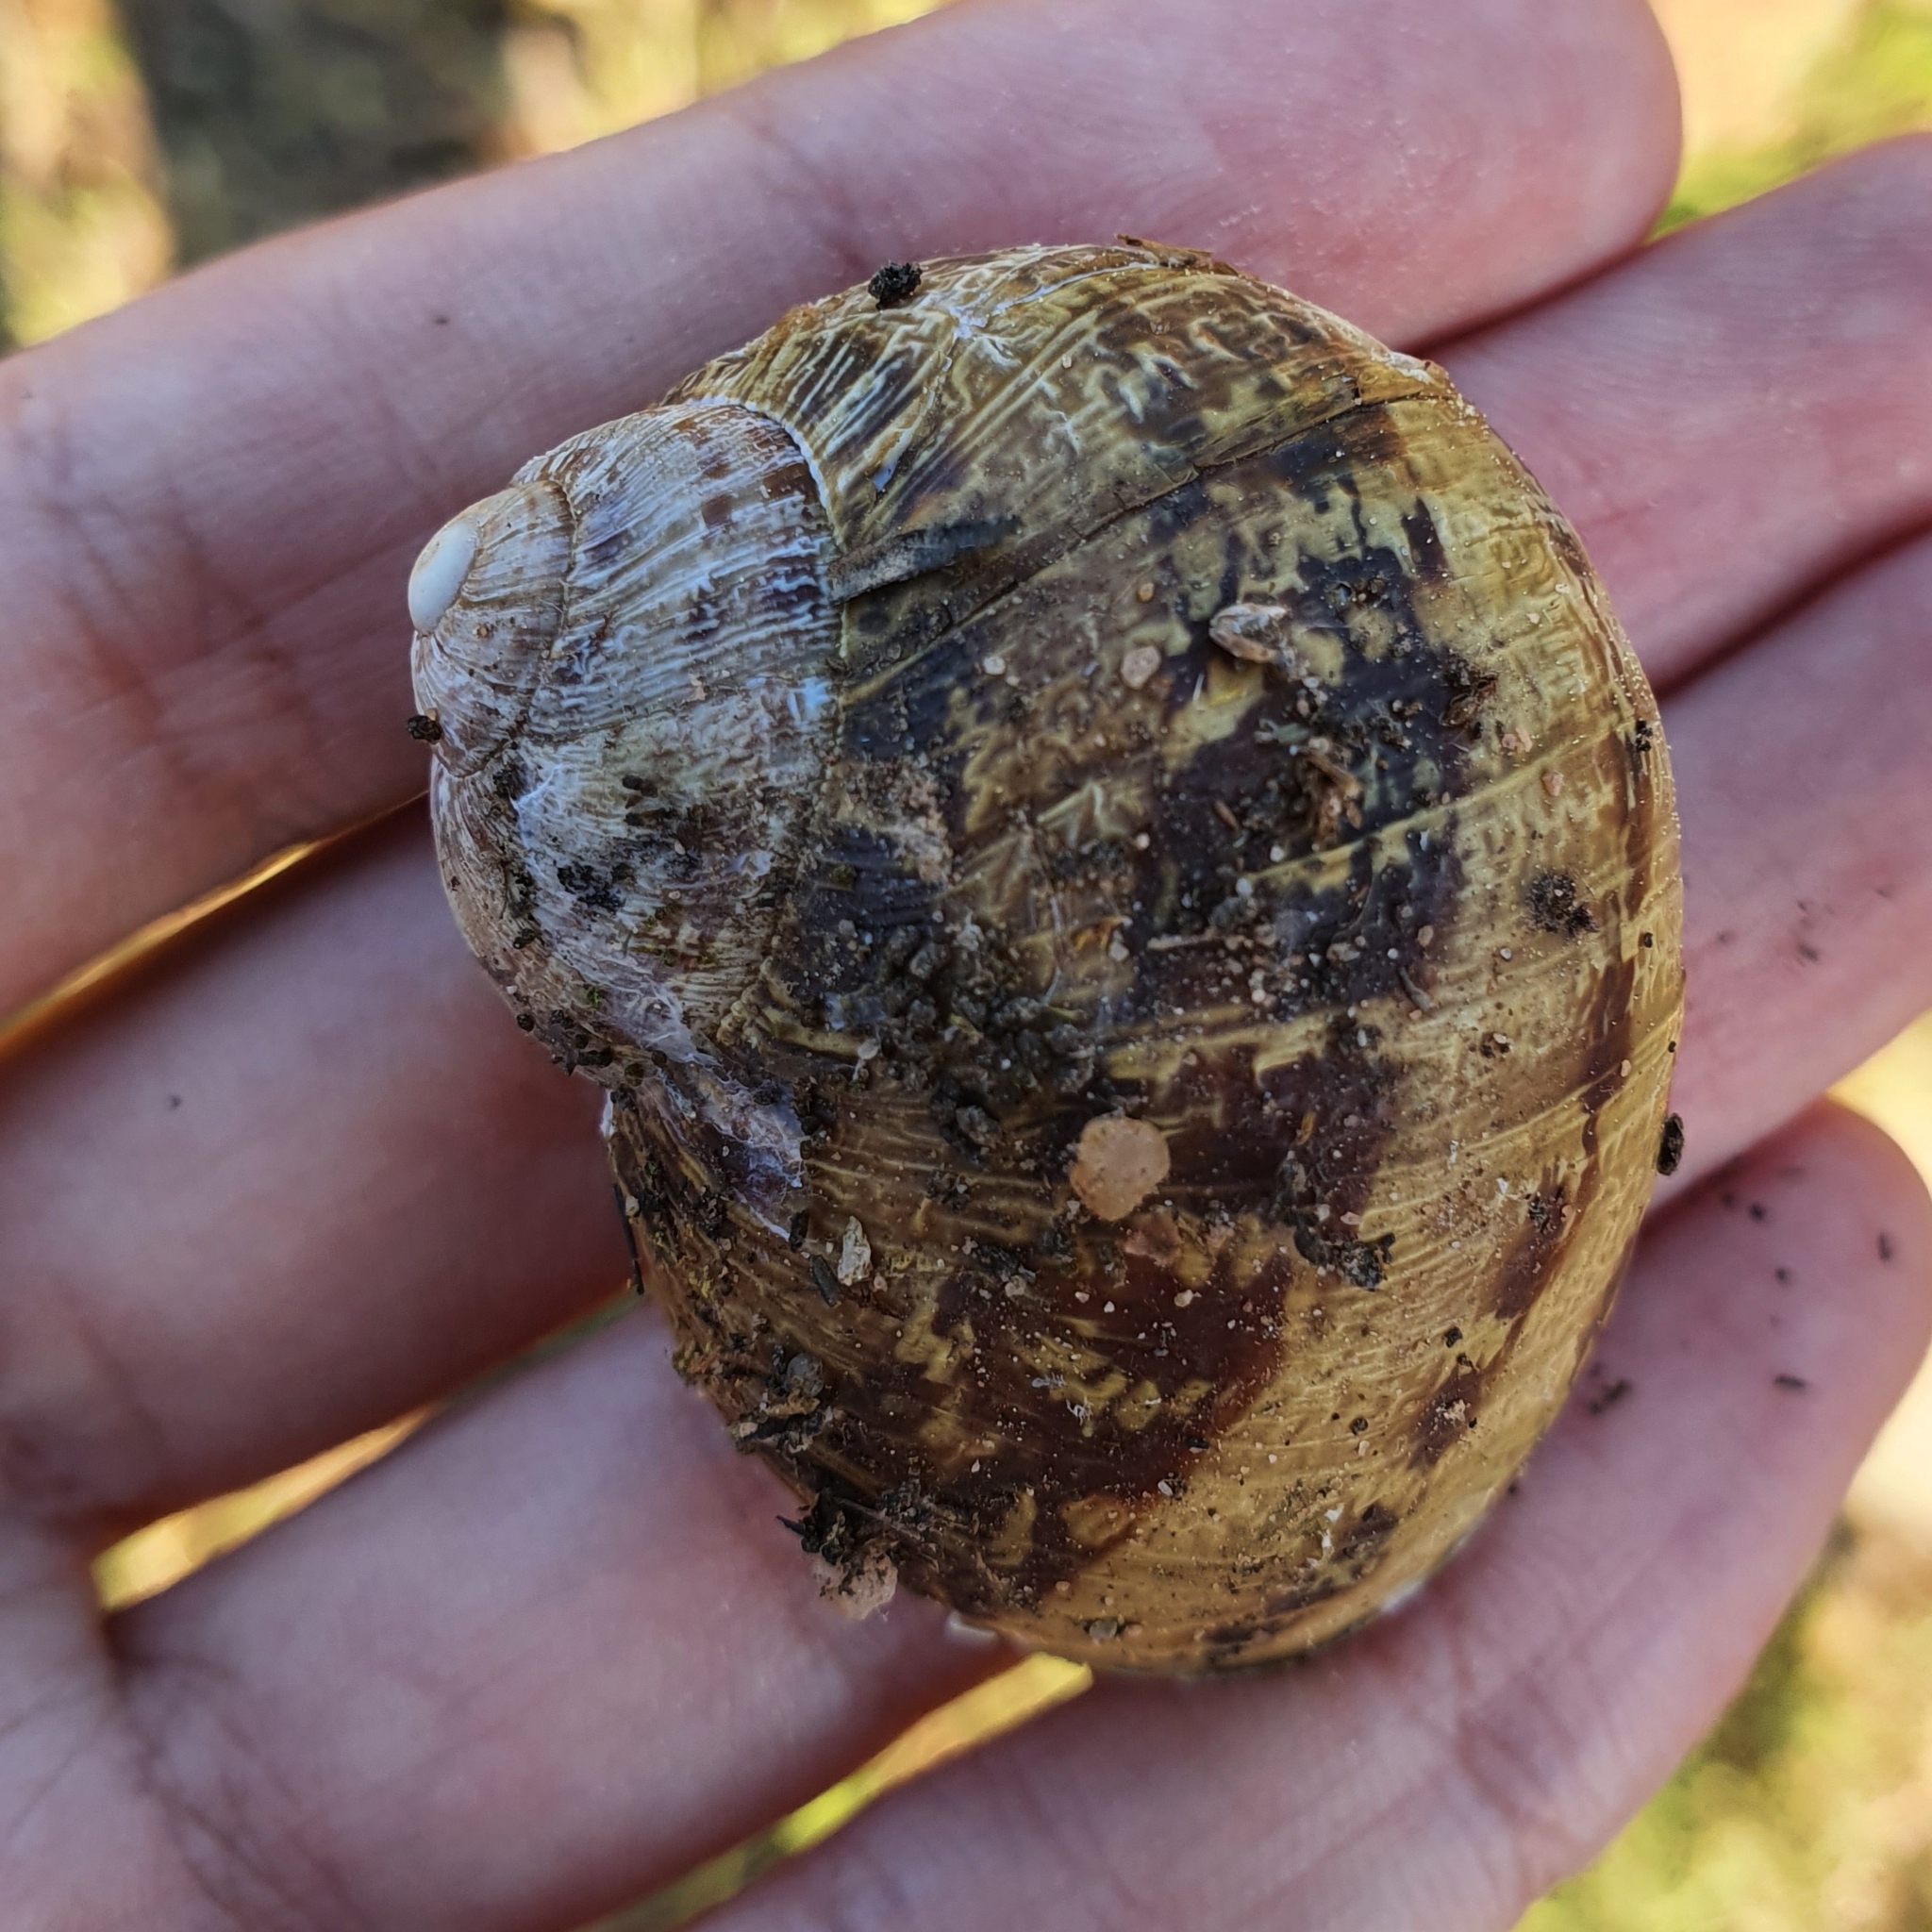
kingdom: Animalia
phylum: Mollusca
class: Gastropoda
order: Stylommatophora
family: Helicidae
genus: Cornu
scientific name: Cornu aspersum
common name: Brown garden snail
